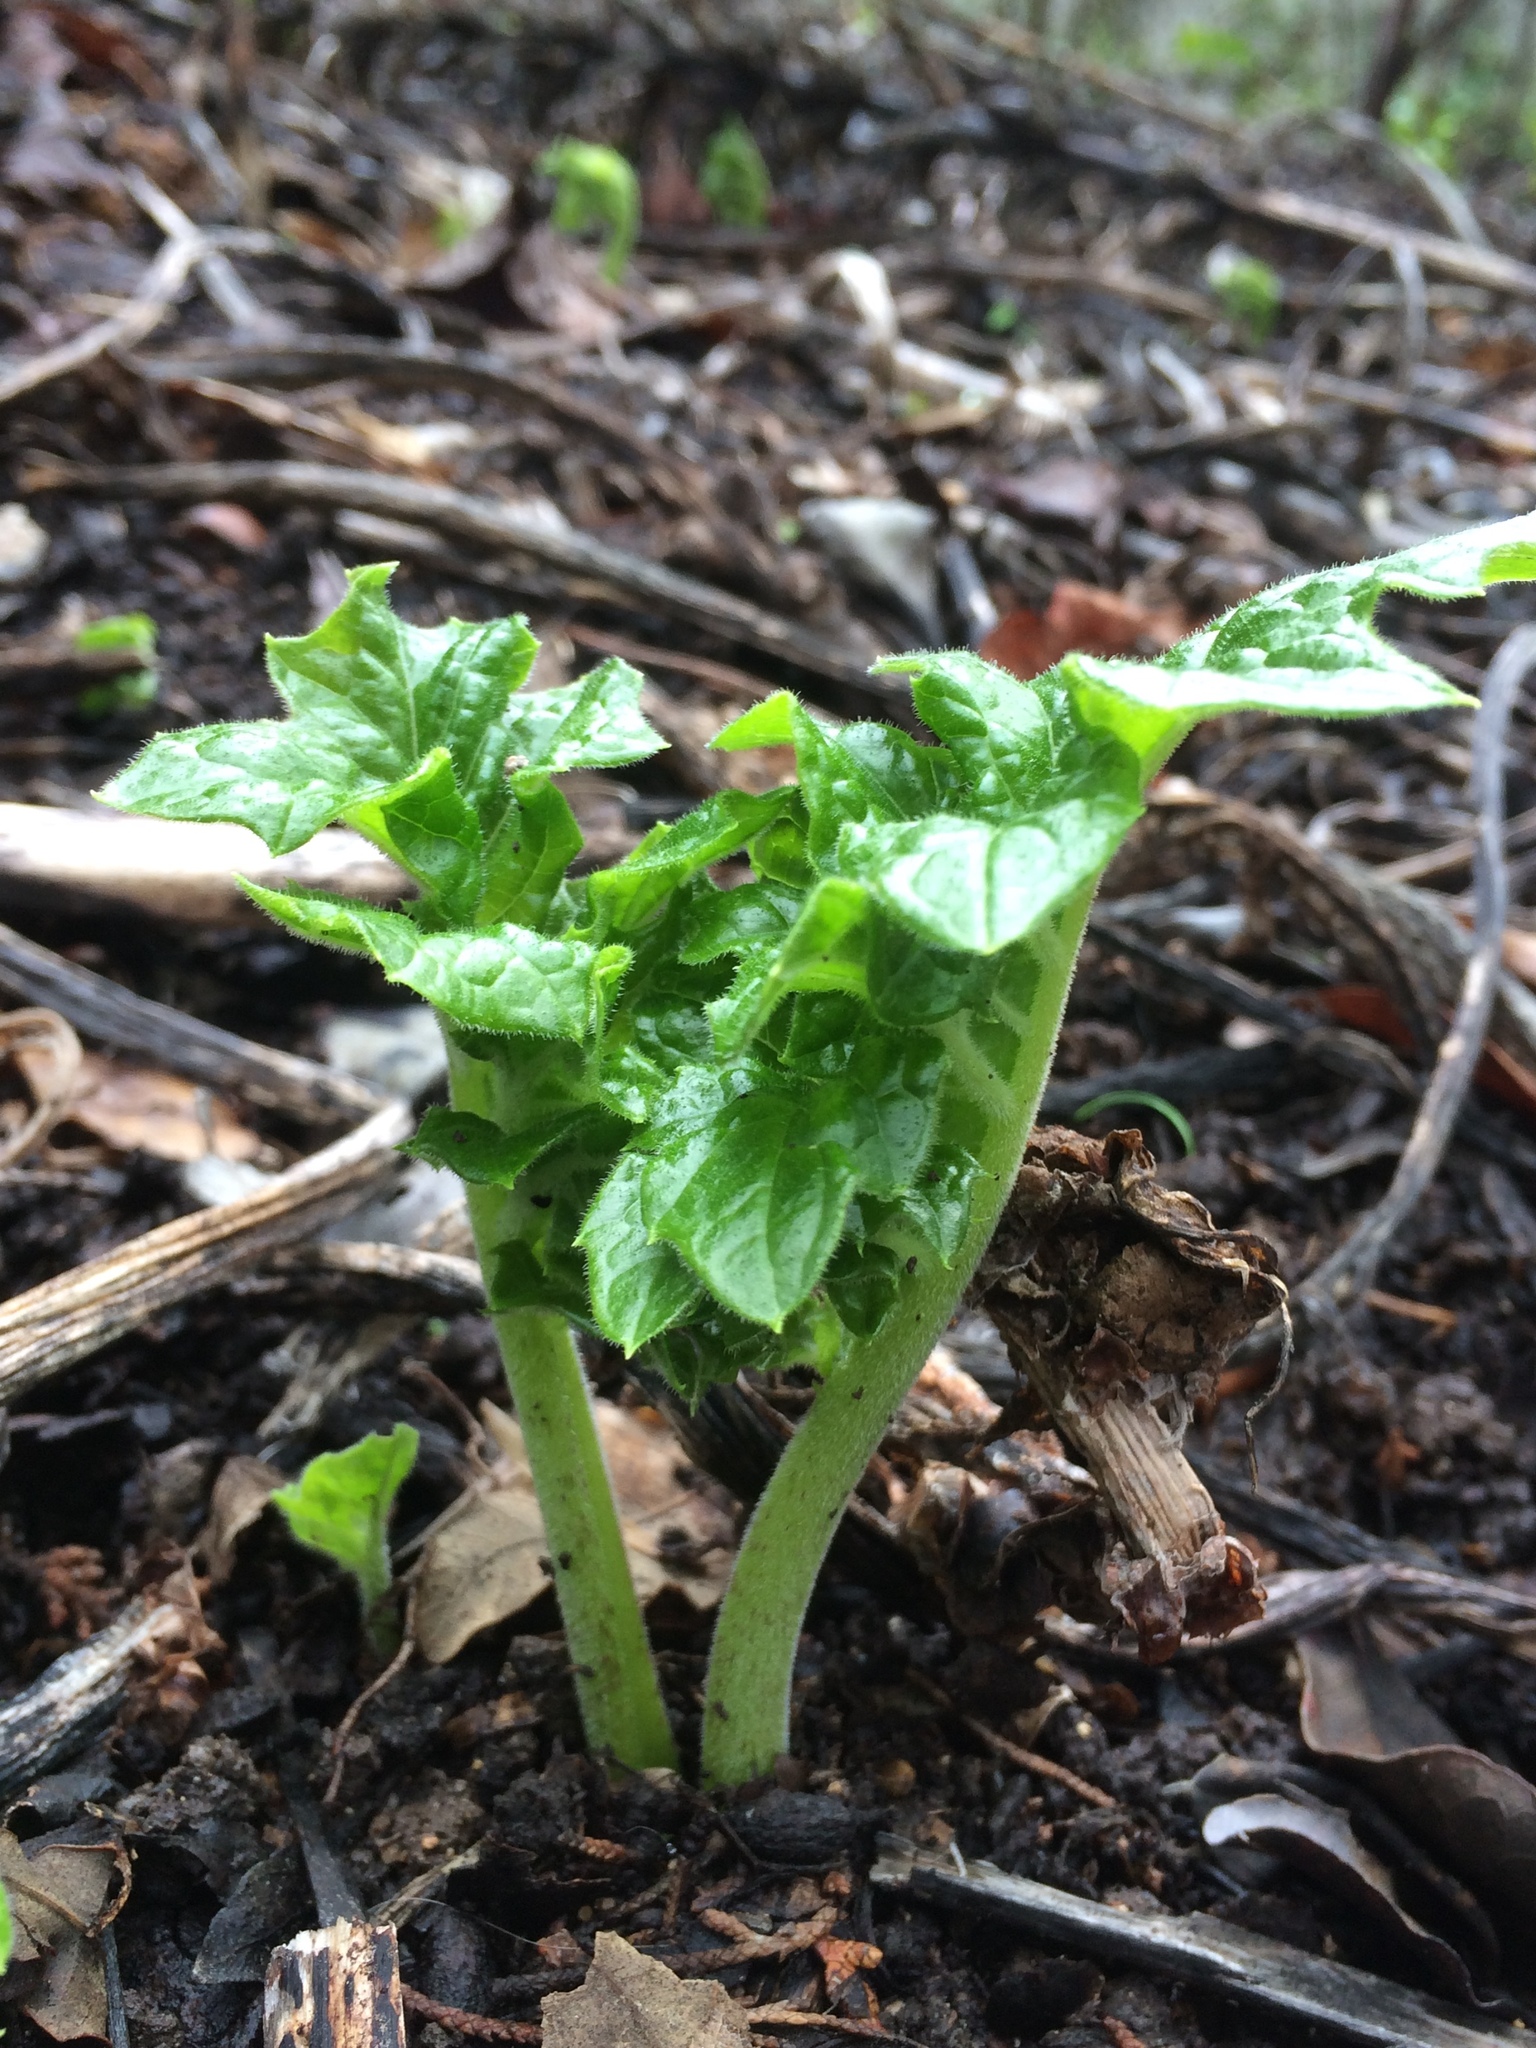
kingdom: Plantae
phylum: Tracheophyta
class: Magnoliopsida
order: Lamiales
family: Acanthaceae
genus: Acanthus
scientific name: Acanthus mollis
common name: Bear's-breech
